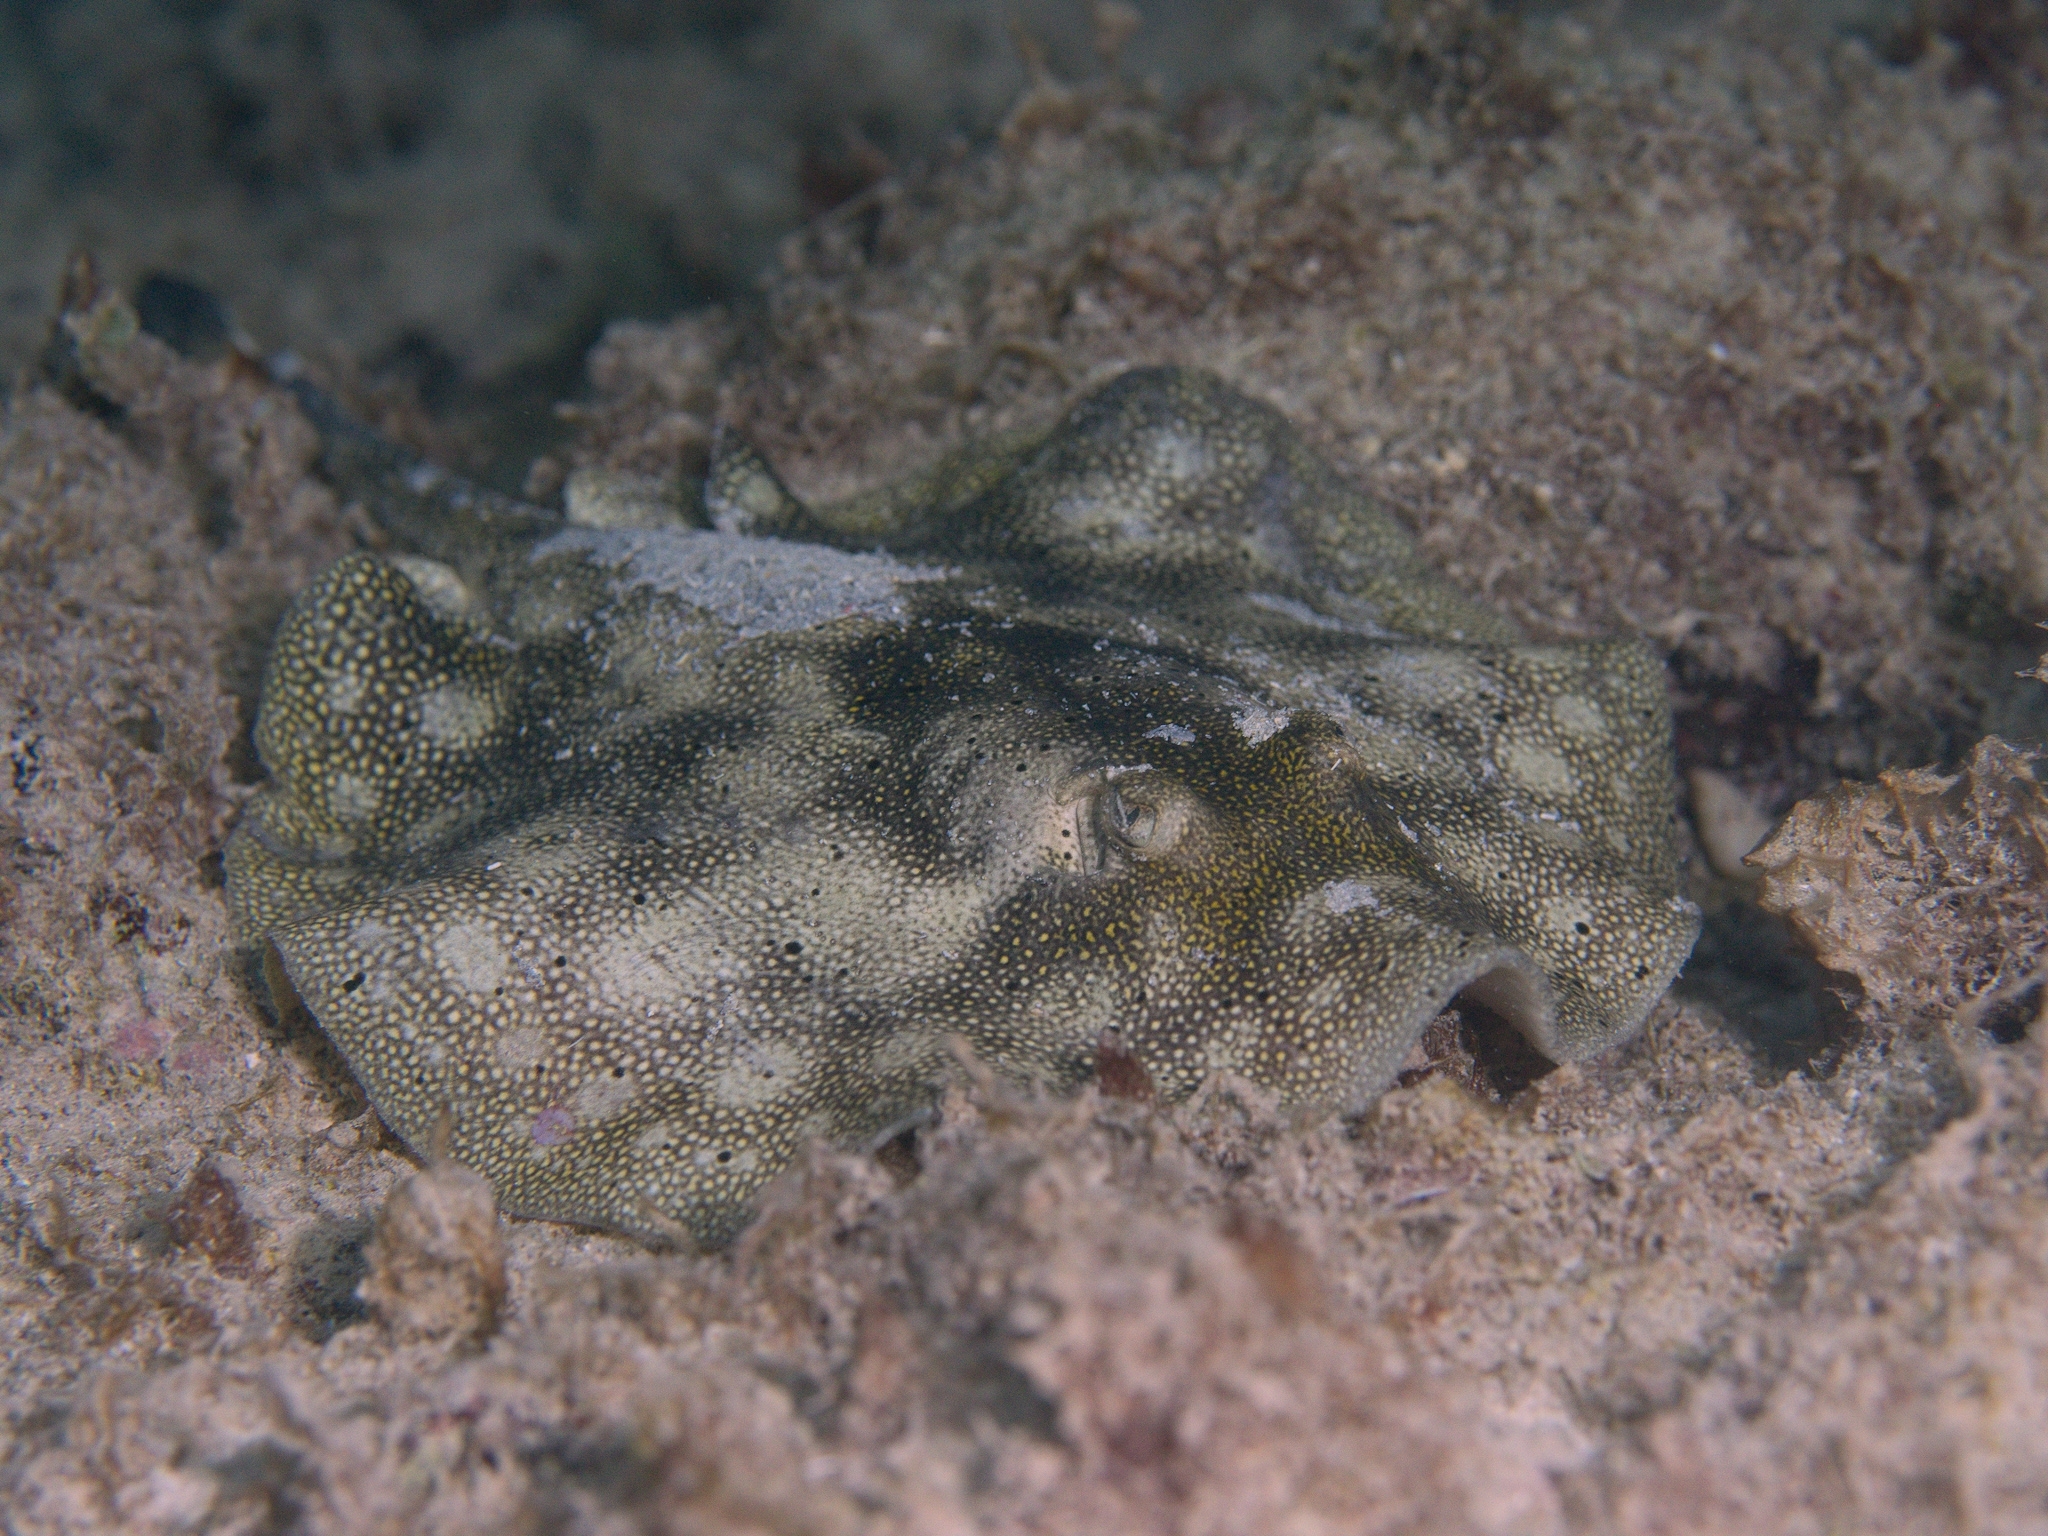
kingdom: Animalia
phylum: Chordata
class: Elasmobranchii
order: Myliobatiformes
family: Urotrygonidae
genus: Urobatis
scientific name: Urobatis jamaicensis
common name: Yellow stingray
